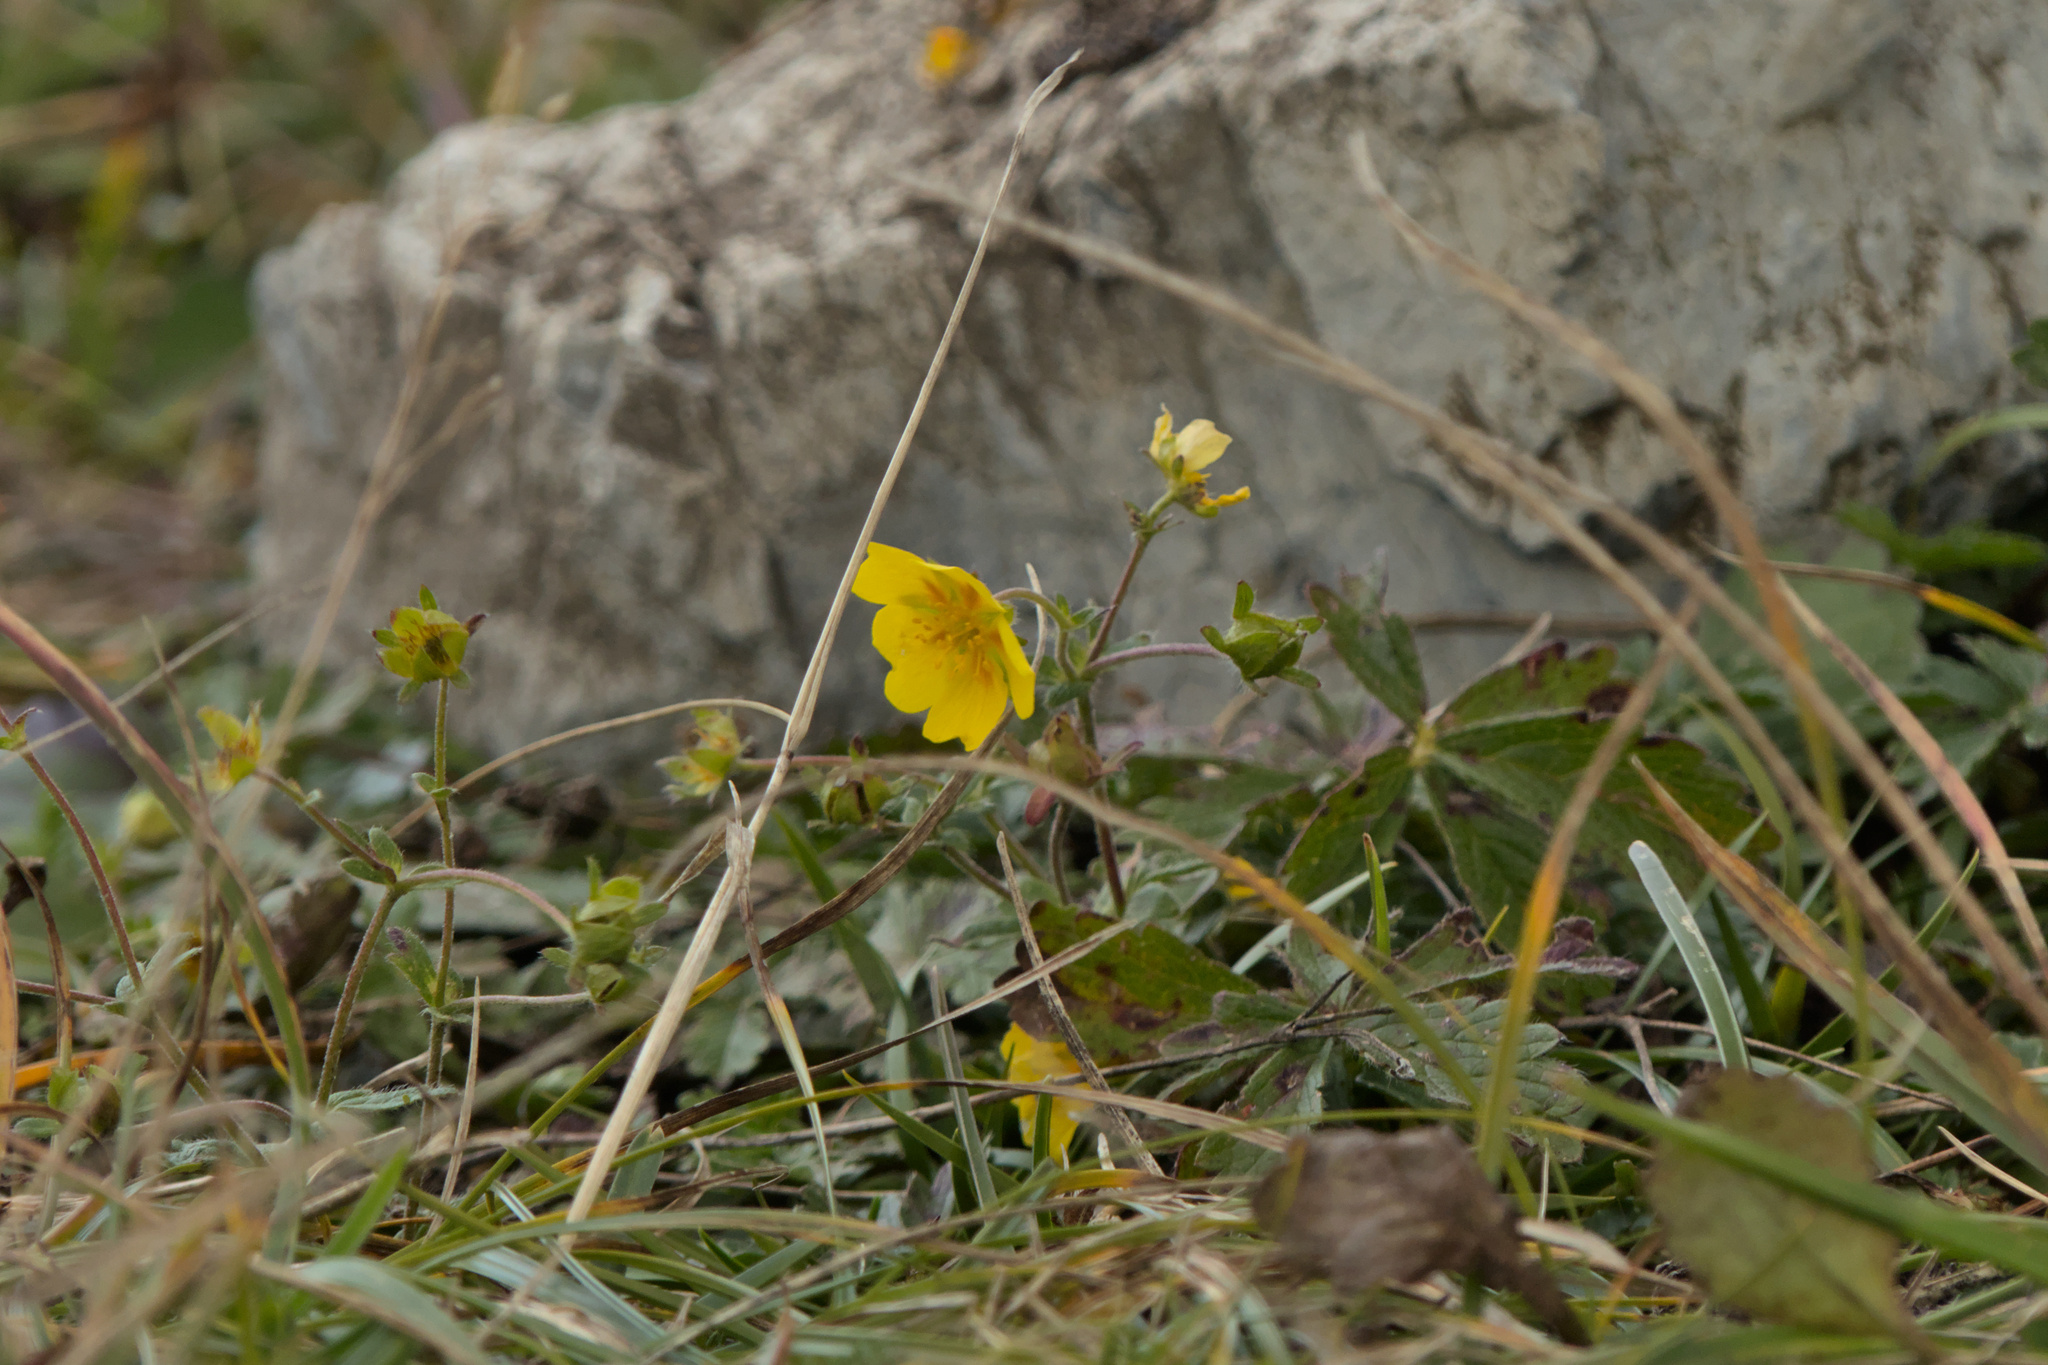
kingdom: Plantae
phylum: Tracheophyta
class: Magnoliopsida
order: Rosales
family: Rosaceae
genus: Potentilla
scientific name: Potentilla aurea
